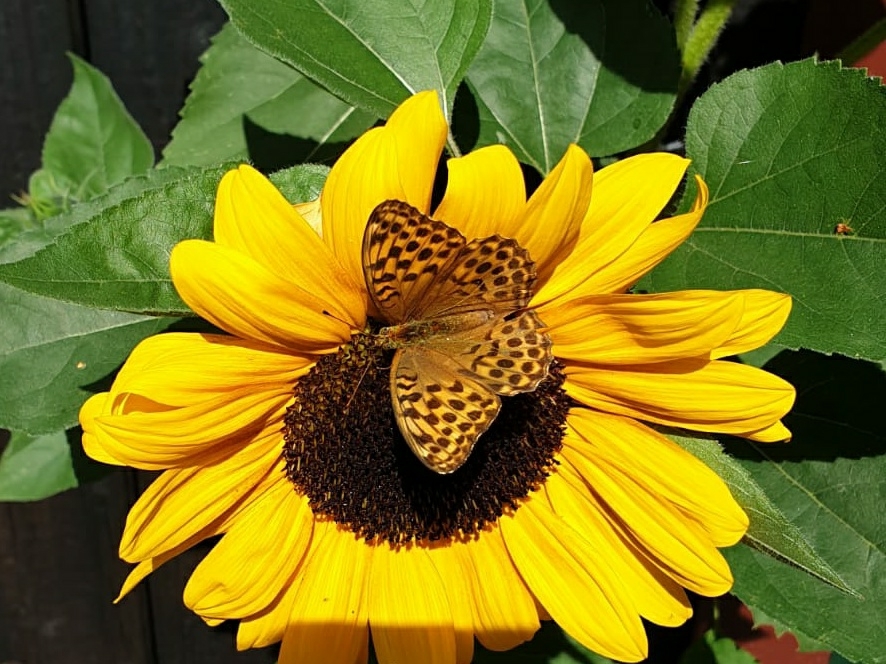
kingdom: Animalia
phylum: Arthropoda
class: Insecta
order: Lepidoptera
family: Nymphalidae
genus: Argynnis
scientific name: Argynnis paphia
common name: Silver-washed fritillary
